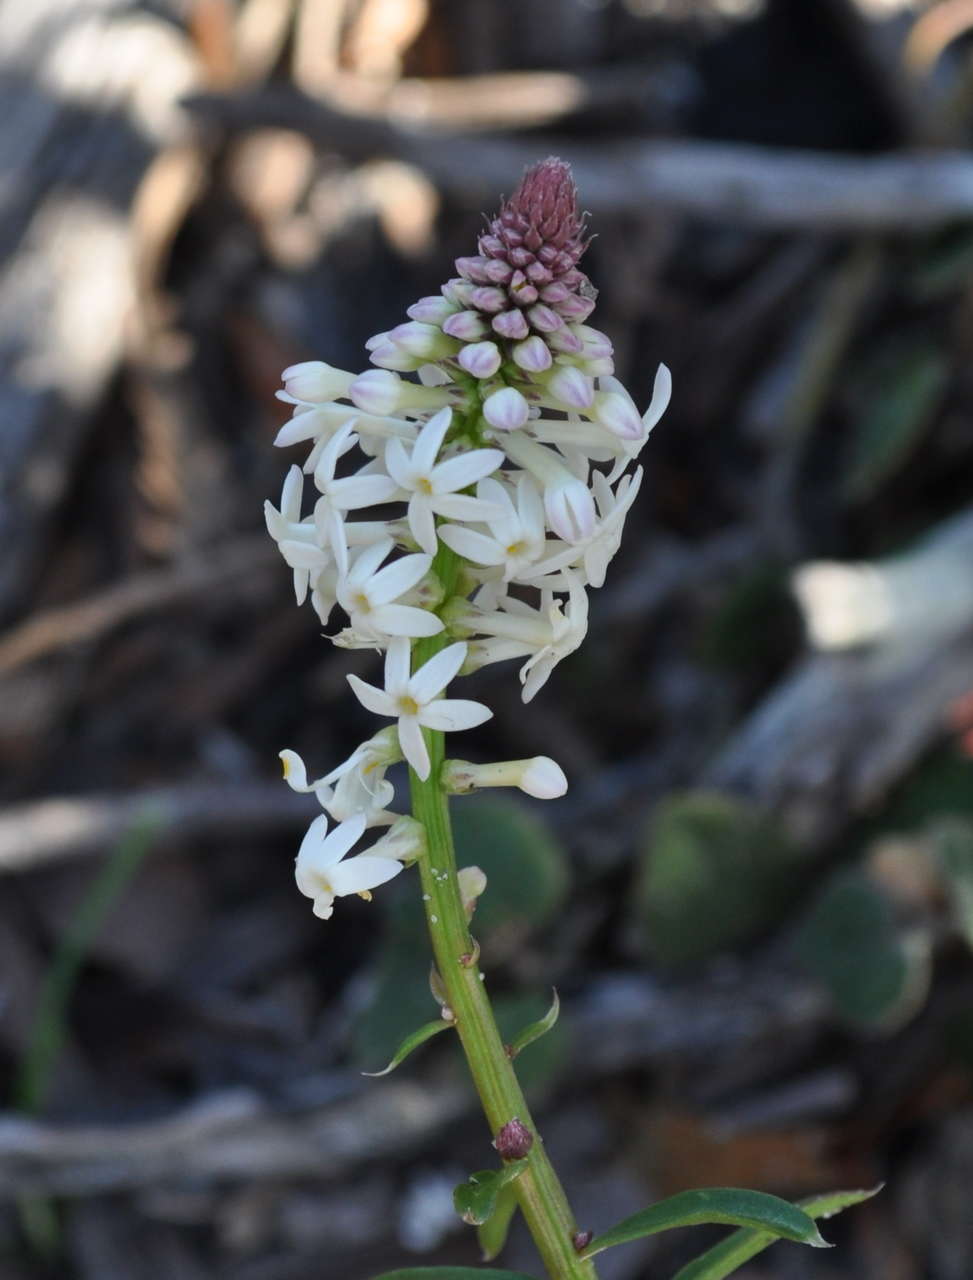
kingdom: Plantae
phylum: Tracheophyta
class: Magnoliopsida
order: Celastrales
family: Celastraceae
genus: Stackhousia
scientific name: Stackhousia monogyna
